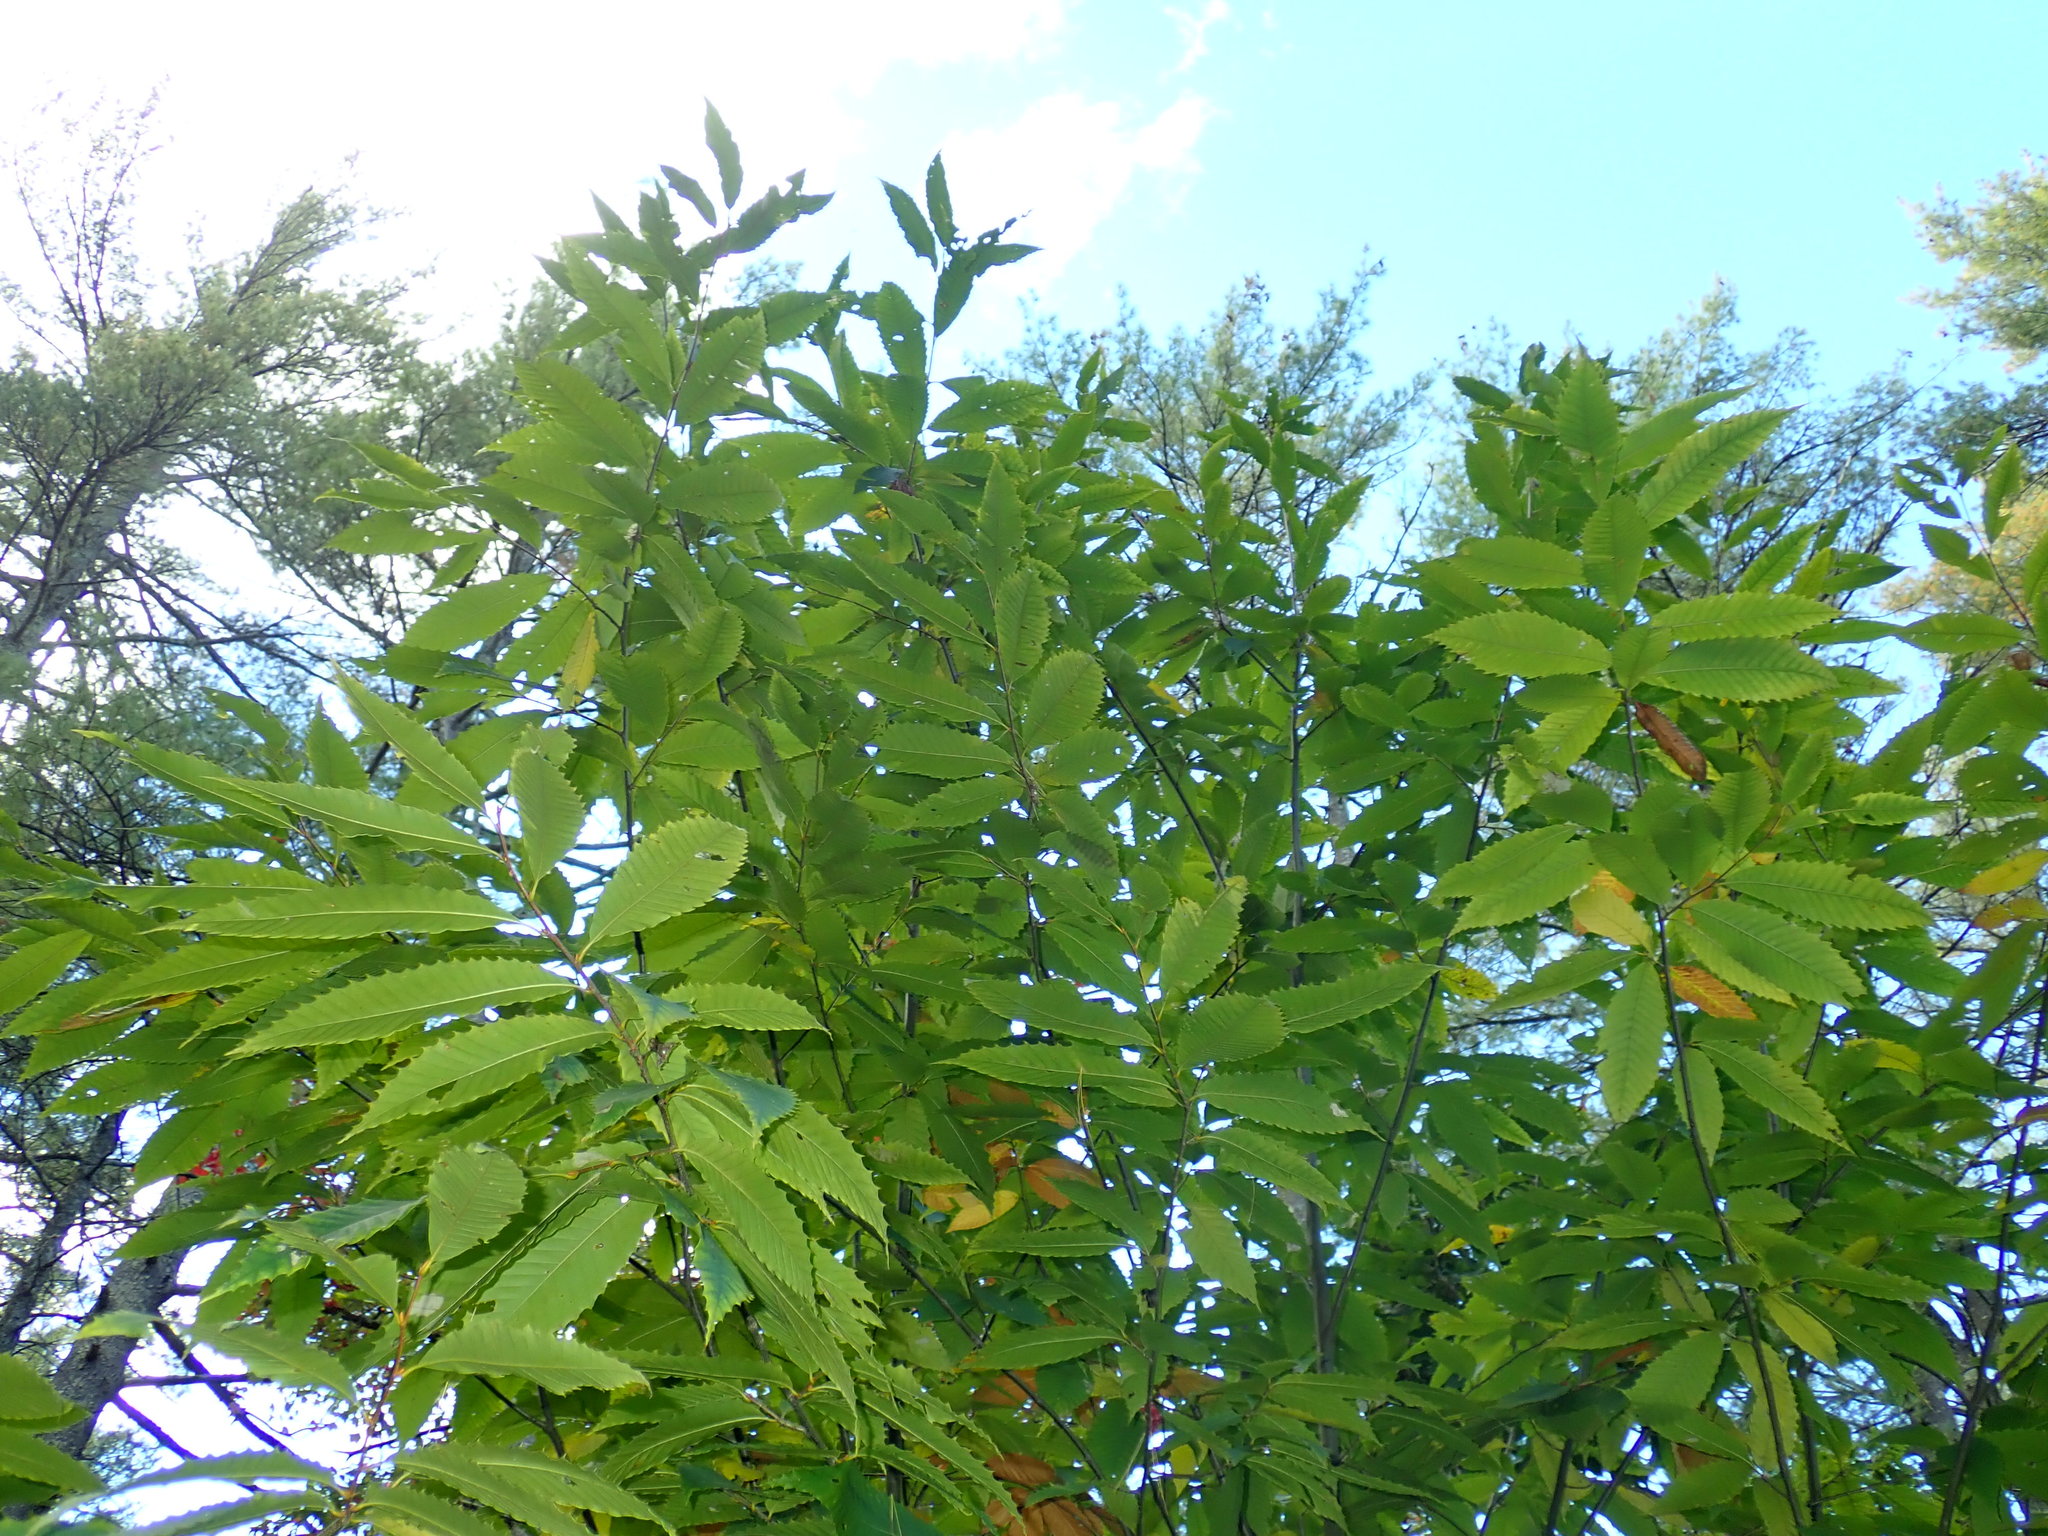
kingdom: Plantae
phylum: Tracheophyta
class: Magnoliopsida
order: Fagales
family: Fagaceae
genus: Castanea
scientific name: Castanea dentata
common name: American chestnut
